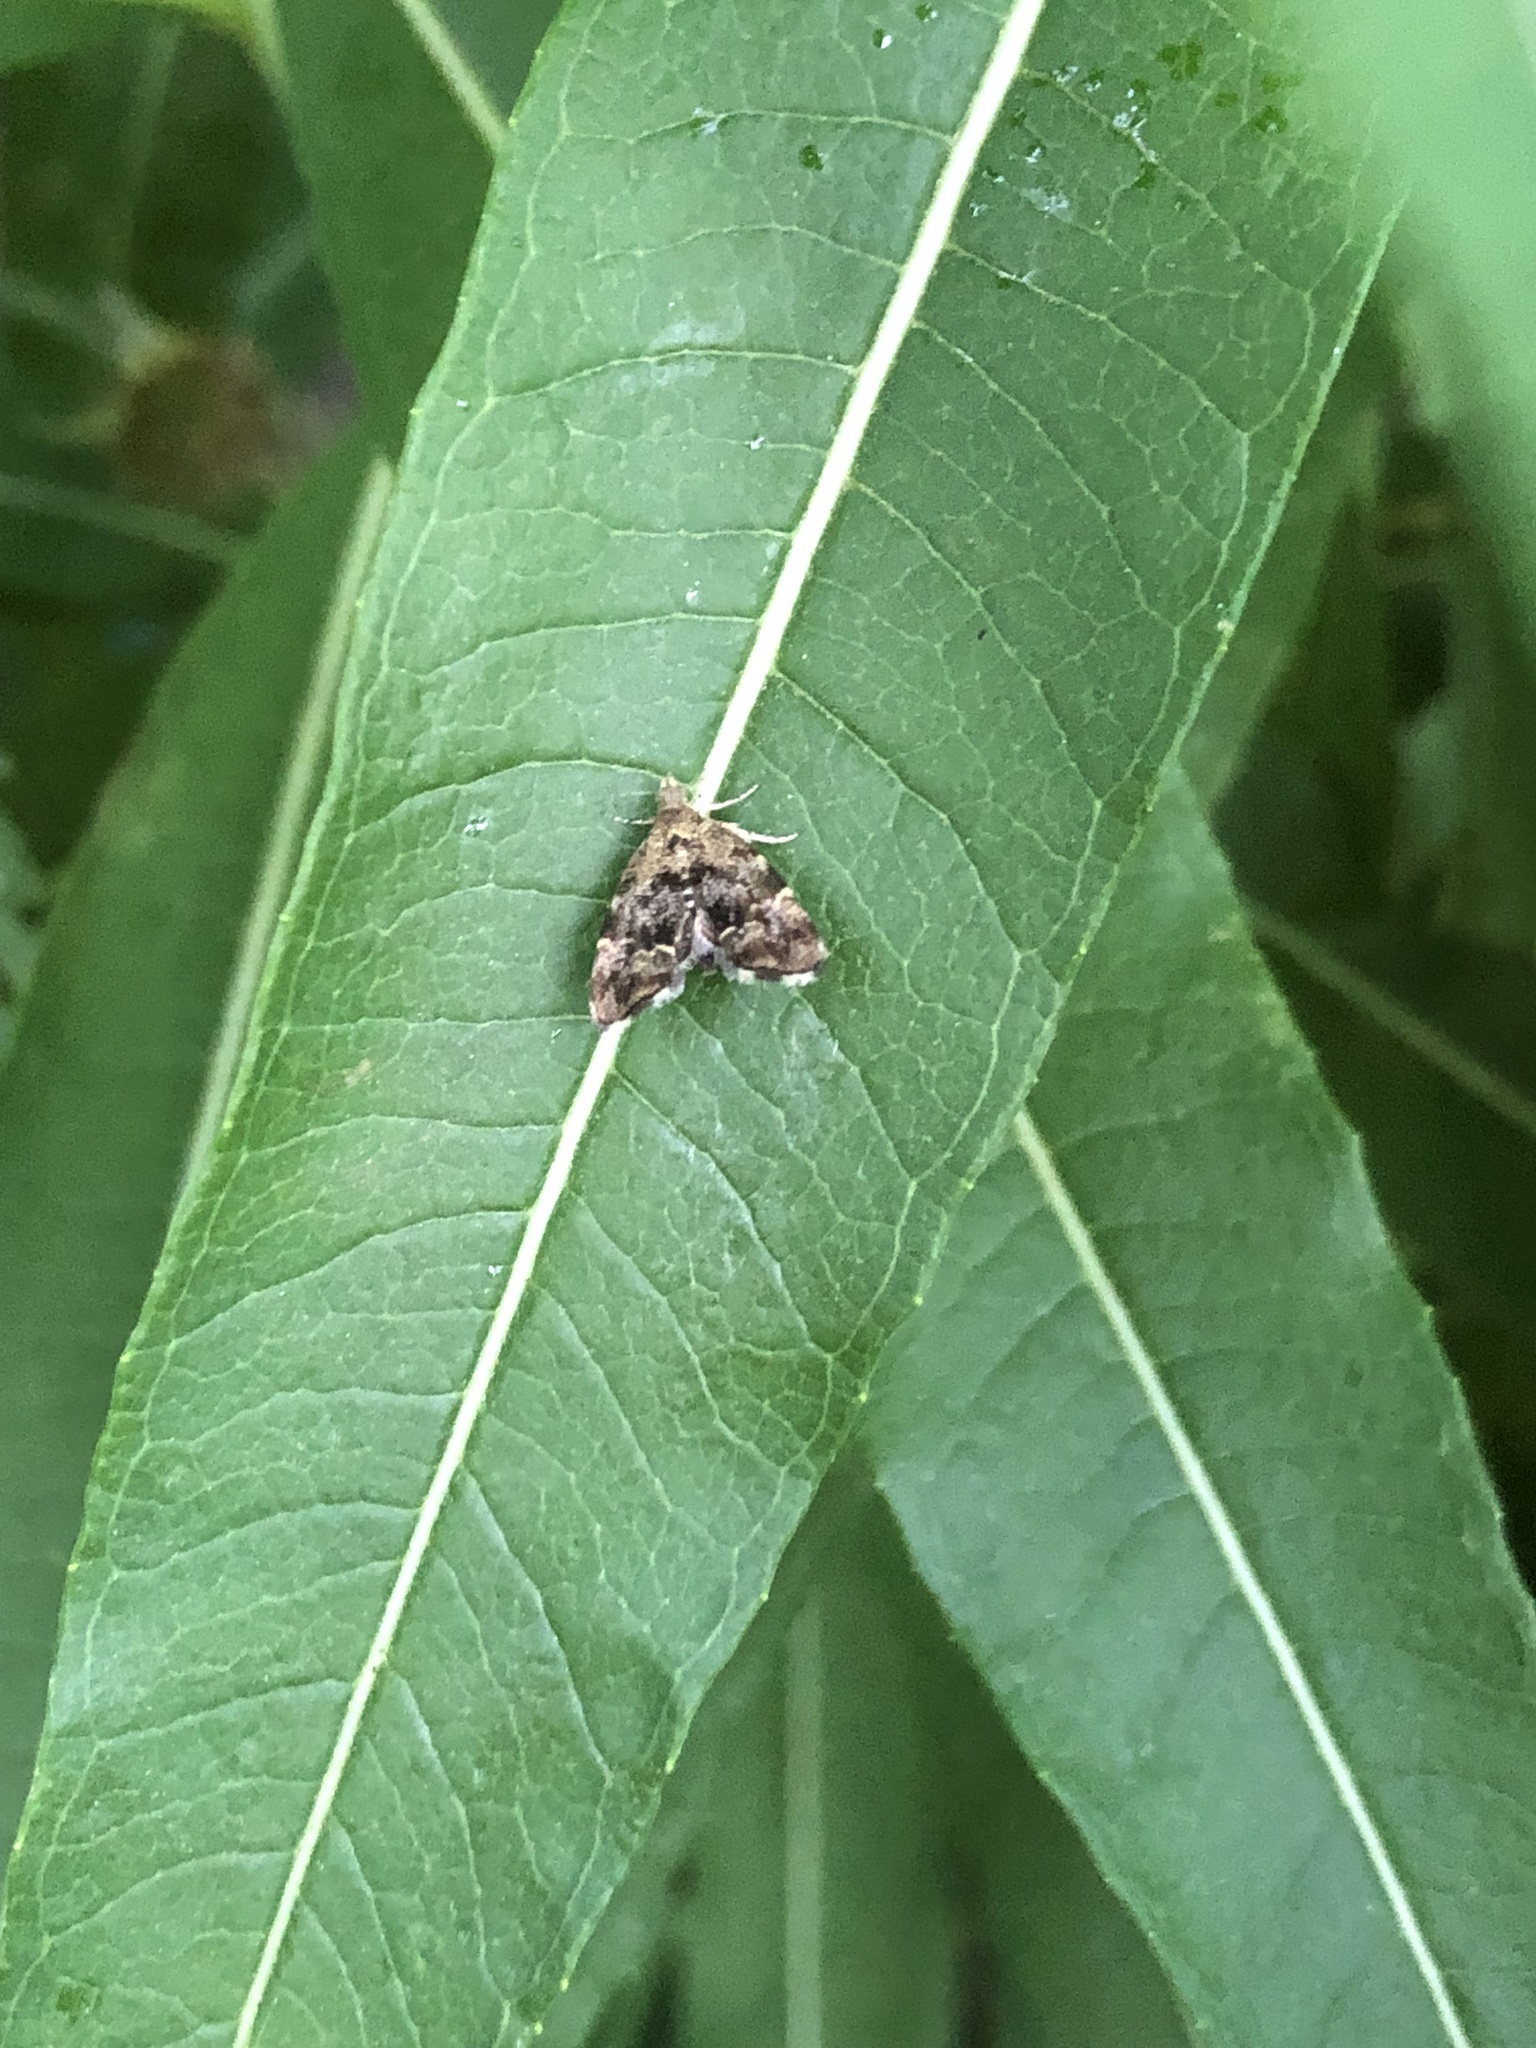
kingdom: Animalia
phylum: Arthropoda
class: Insecta
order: Lepidoptera
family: Choreutidae
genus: Anthophila
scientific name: Anthophila fabriciana
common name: Nettle-tap
